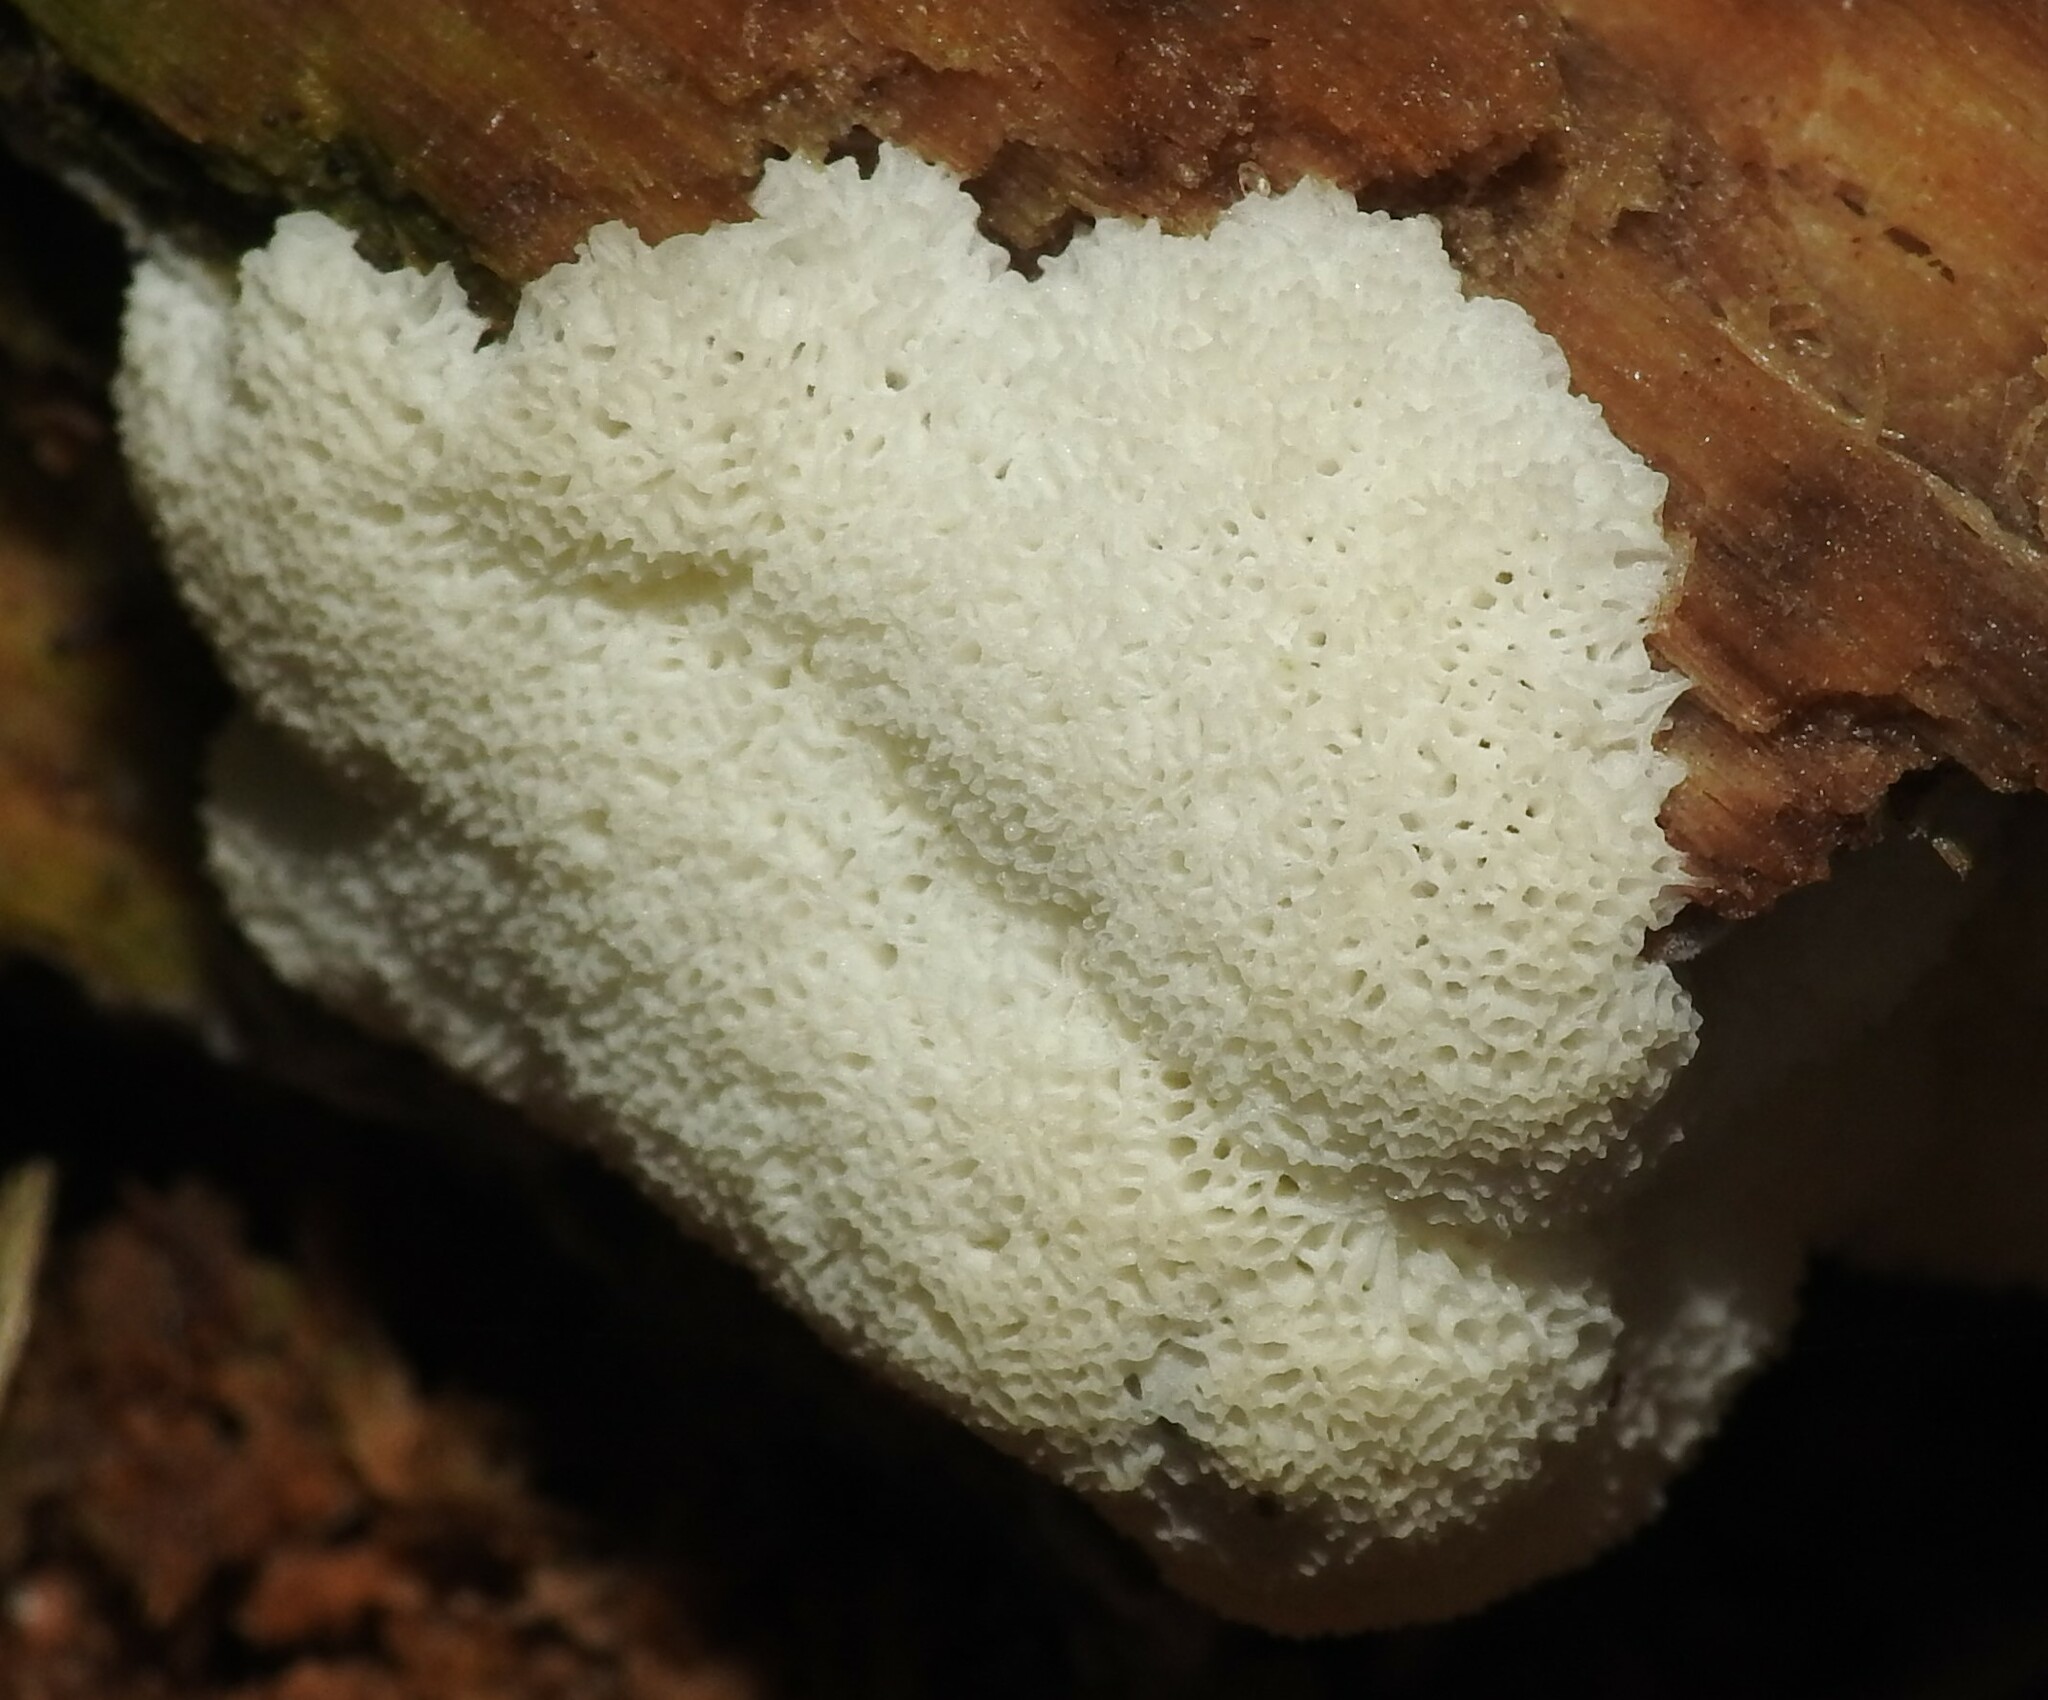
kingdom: Protozoa
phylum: Mycetozoa
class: Protosteliomycetes
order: Ceratiomyxales
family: Ceratiomyxaceae
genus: Ceratiomyxa
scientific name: Ceratiomyxa fruticulosa
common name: Honeycomb coral slime mold
